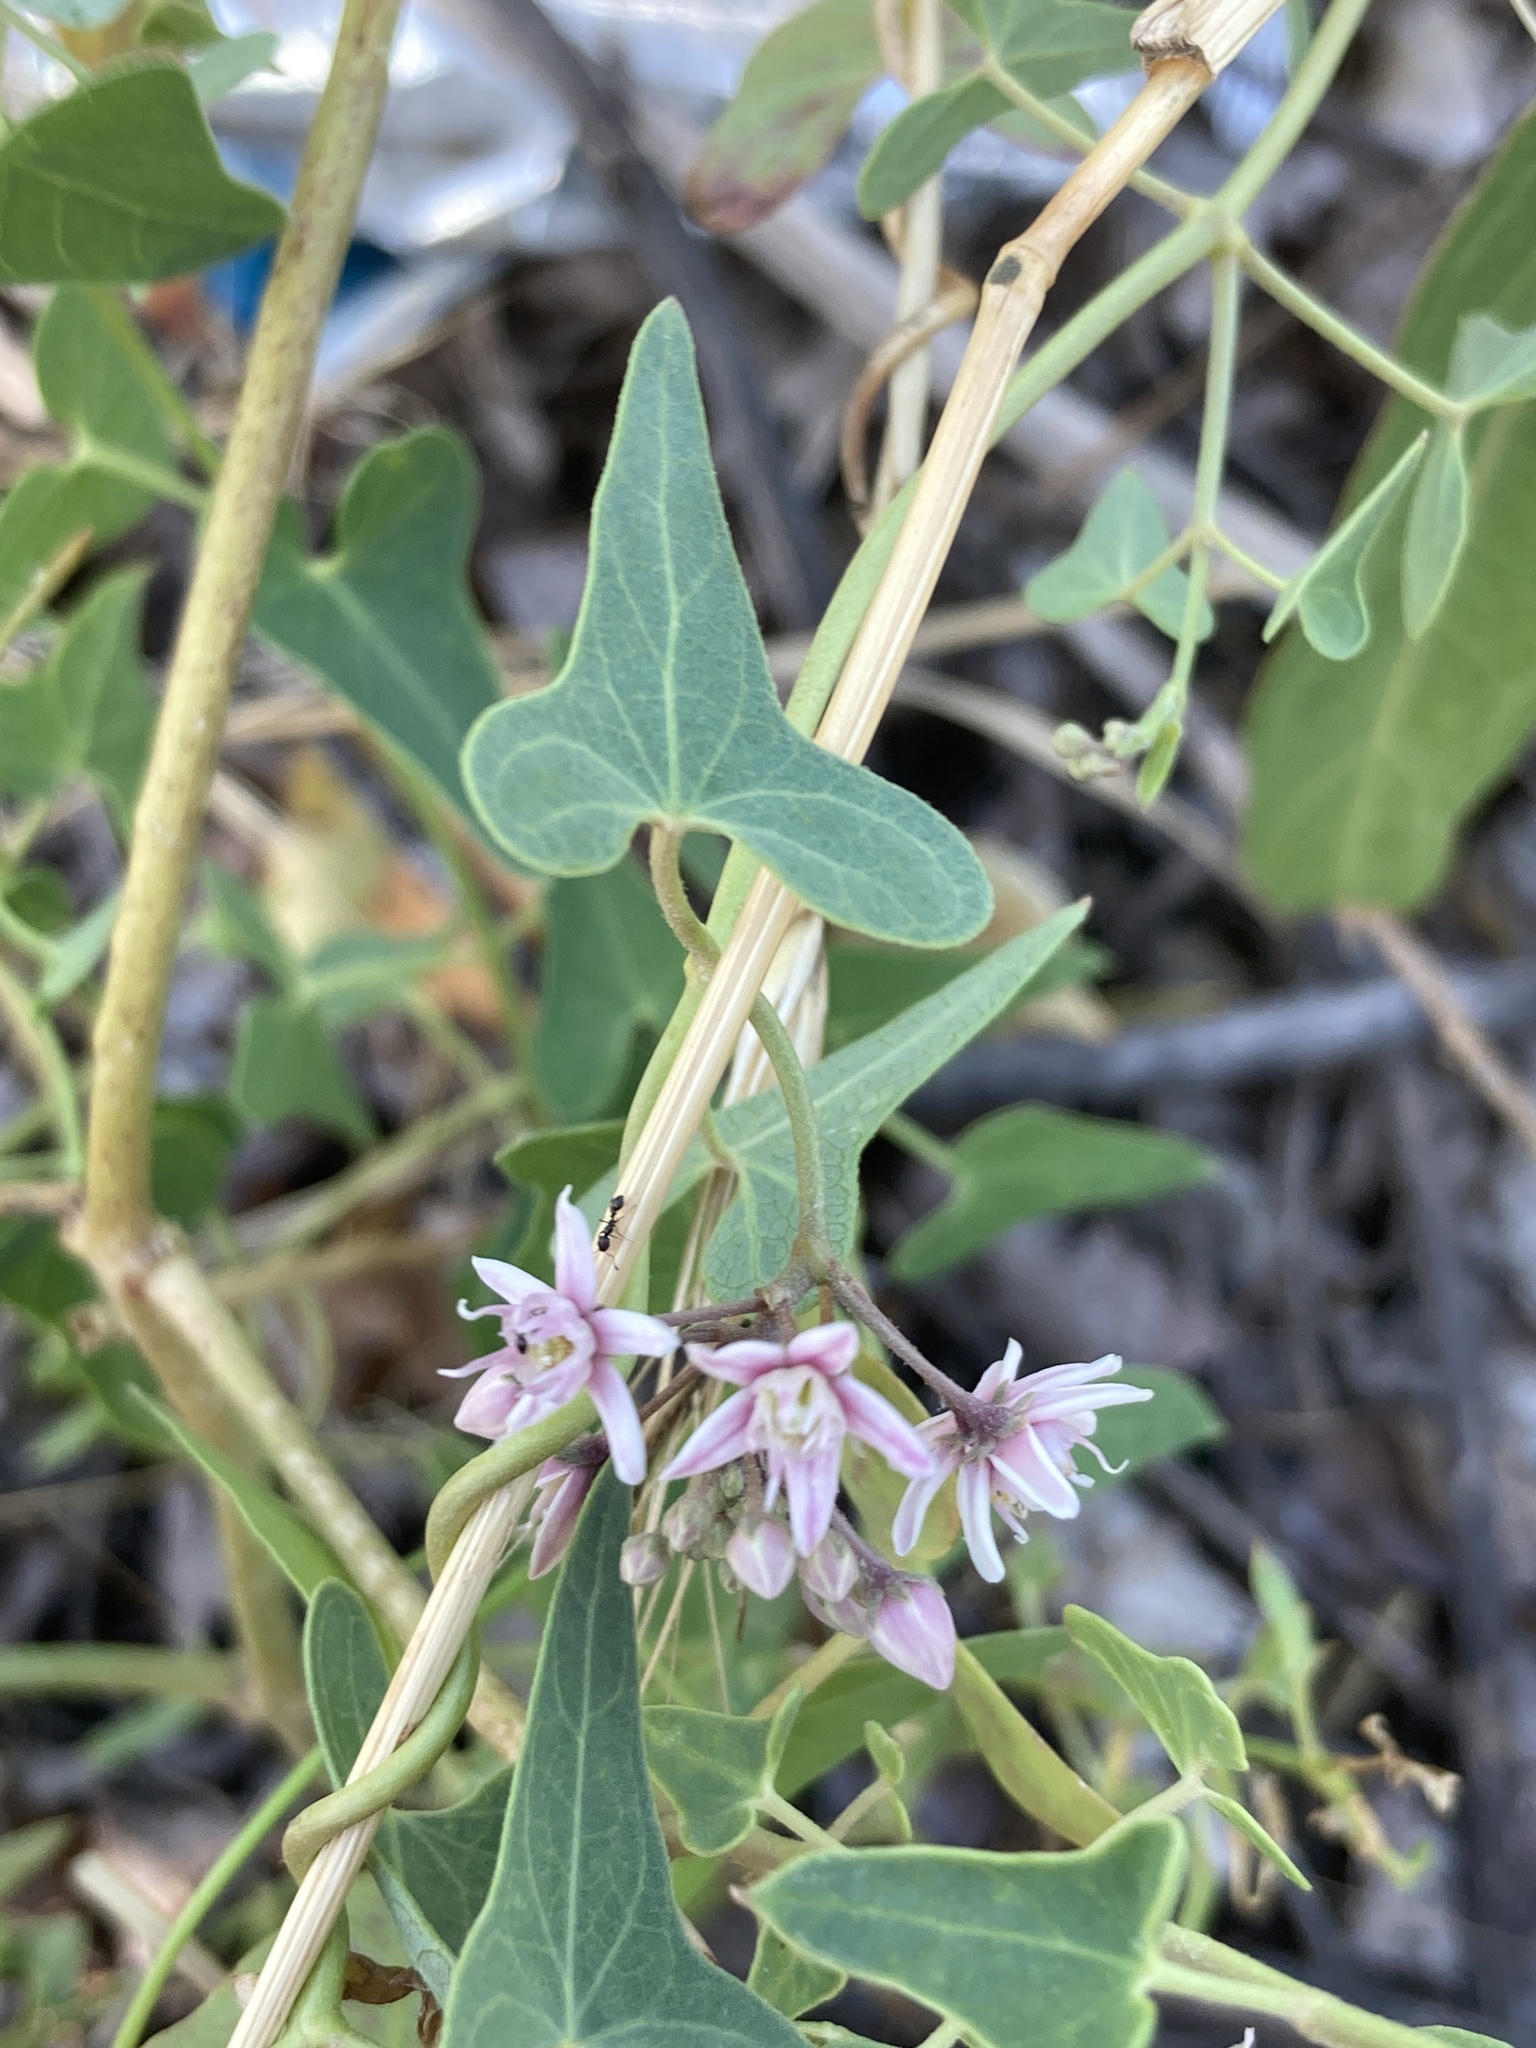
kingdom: Plantae
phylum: Tracheophyta
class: Magnoliopsida
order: Gentianales
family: Apocynaceae
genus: Cynanchum
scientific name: Cynanchum acutum
